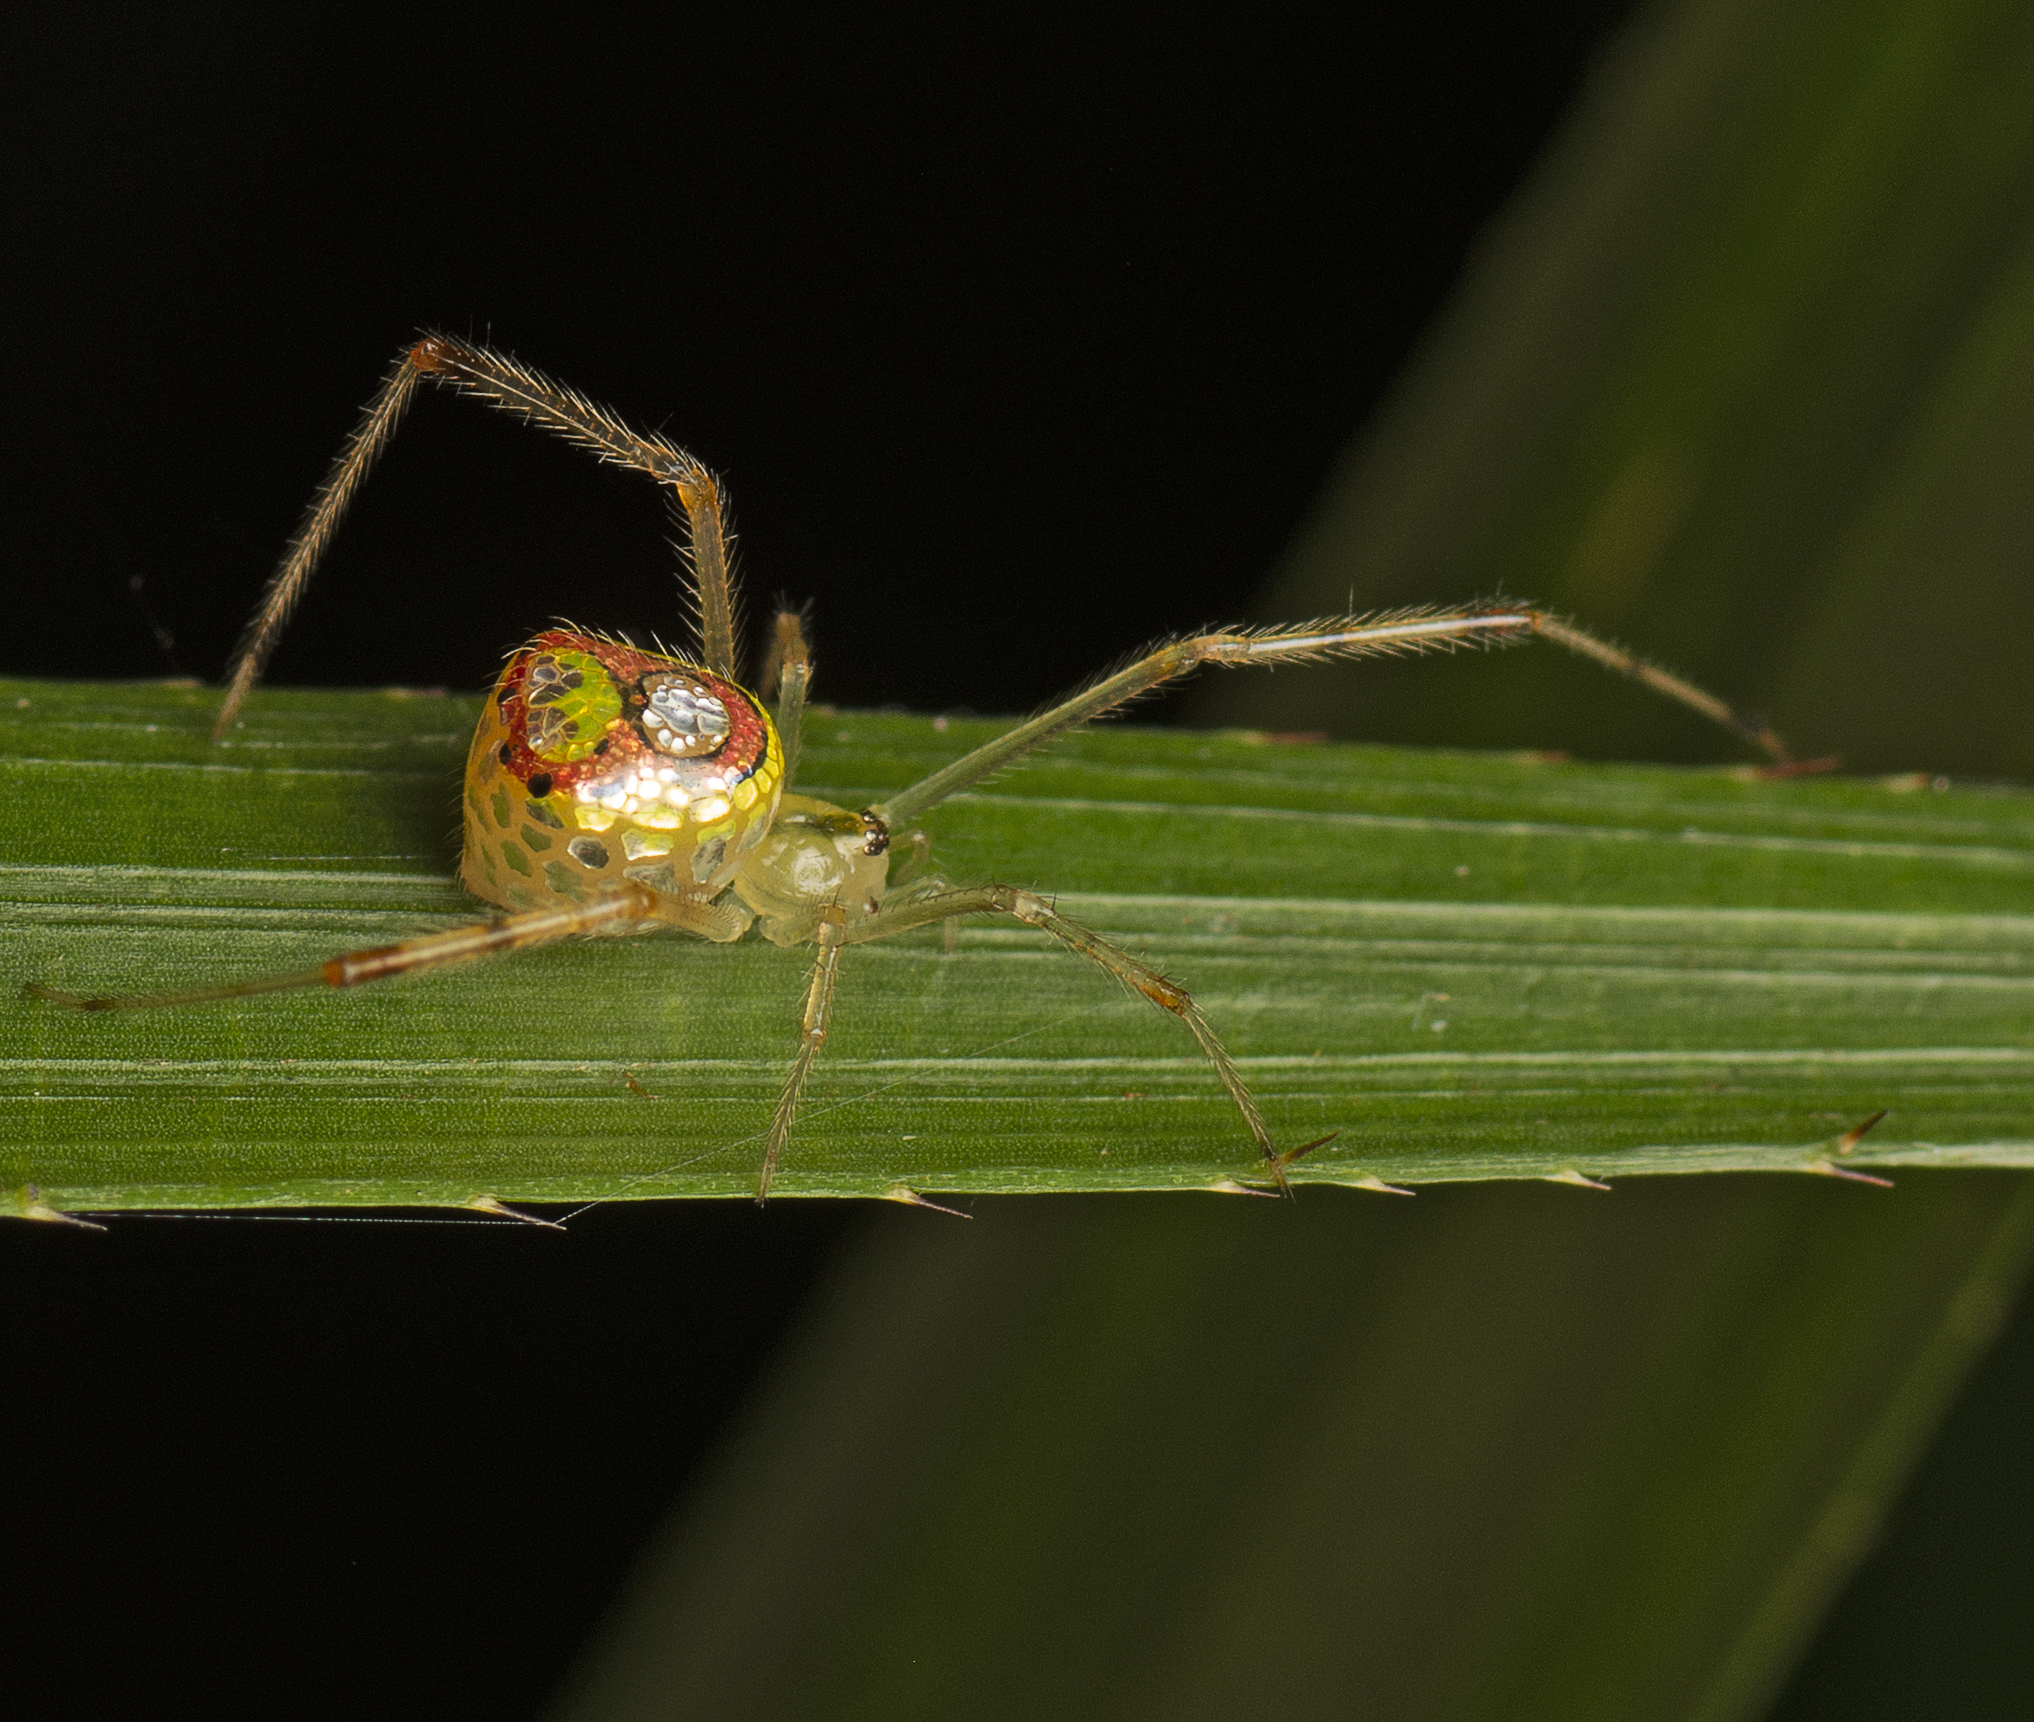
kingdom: Animalia
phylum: Arthropoda
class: Arachnida
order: Araneae
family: Theridiidae
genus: Thwaitesia
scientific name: Thwaitesia argentiopunctata
